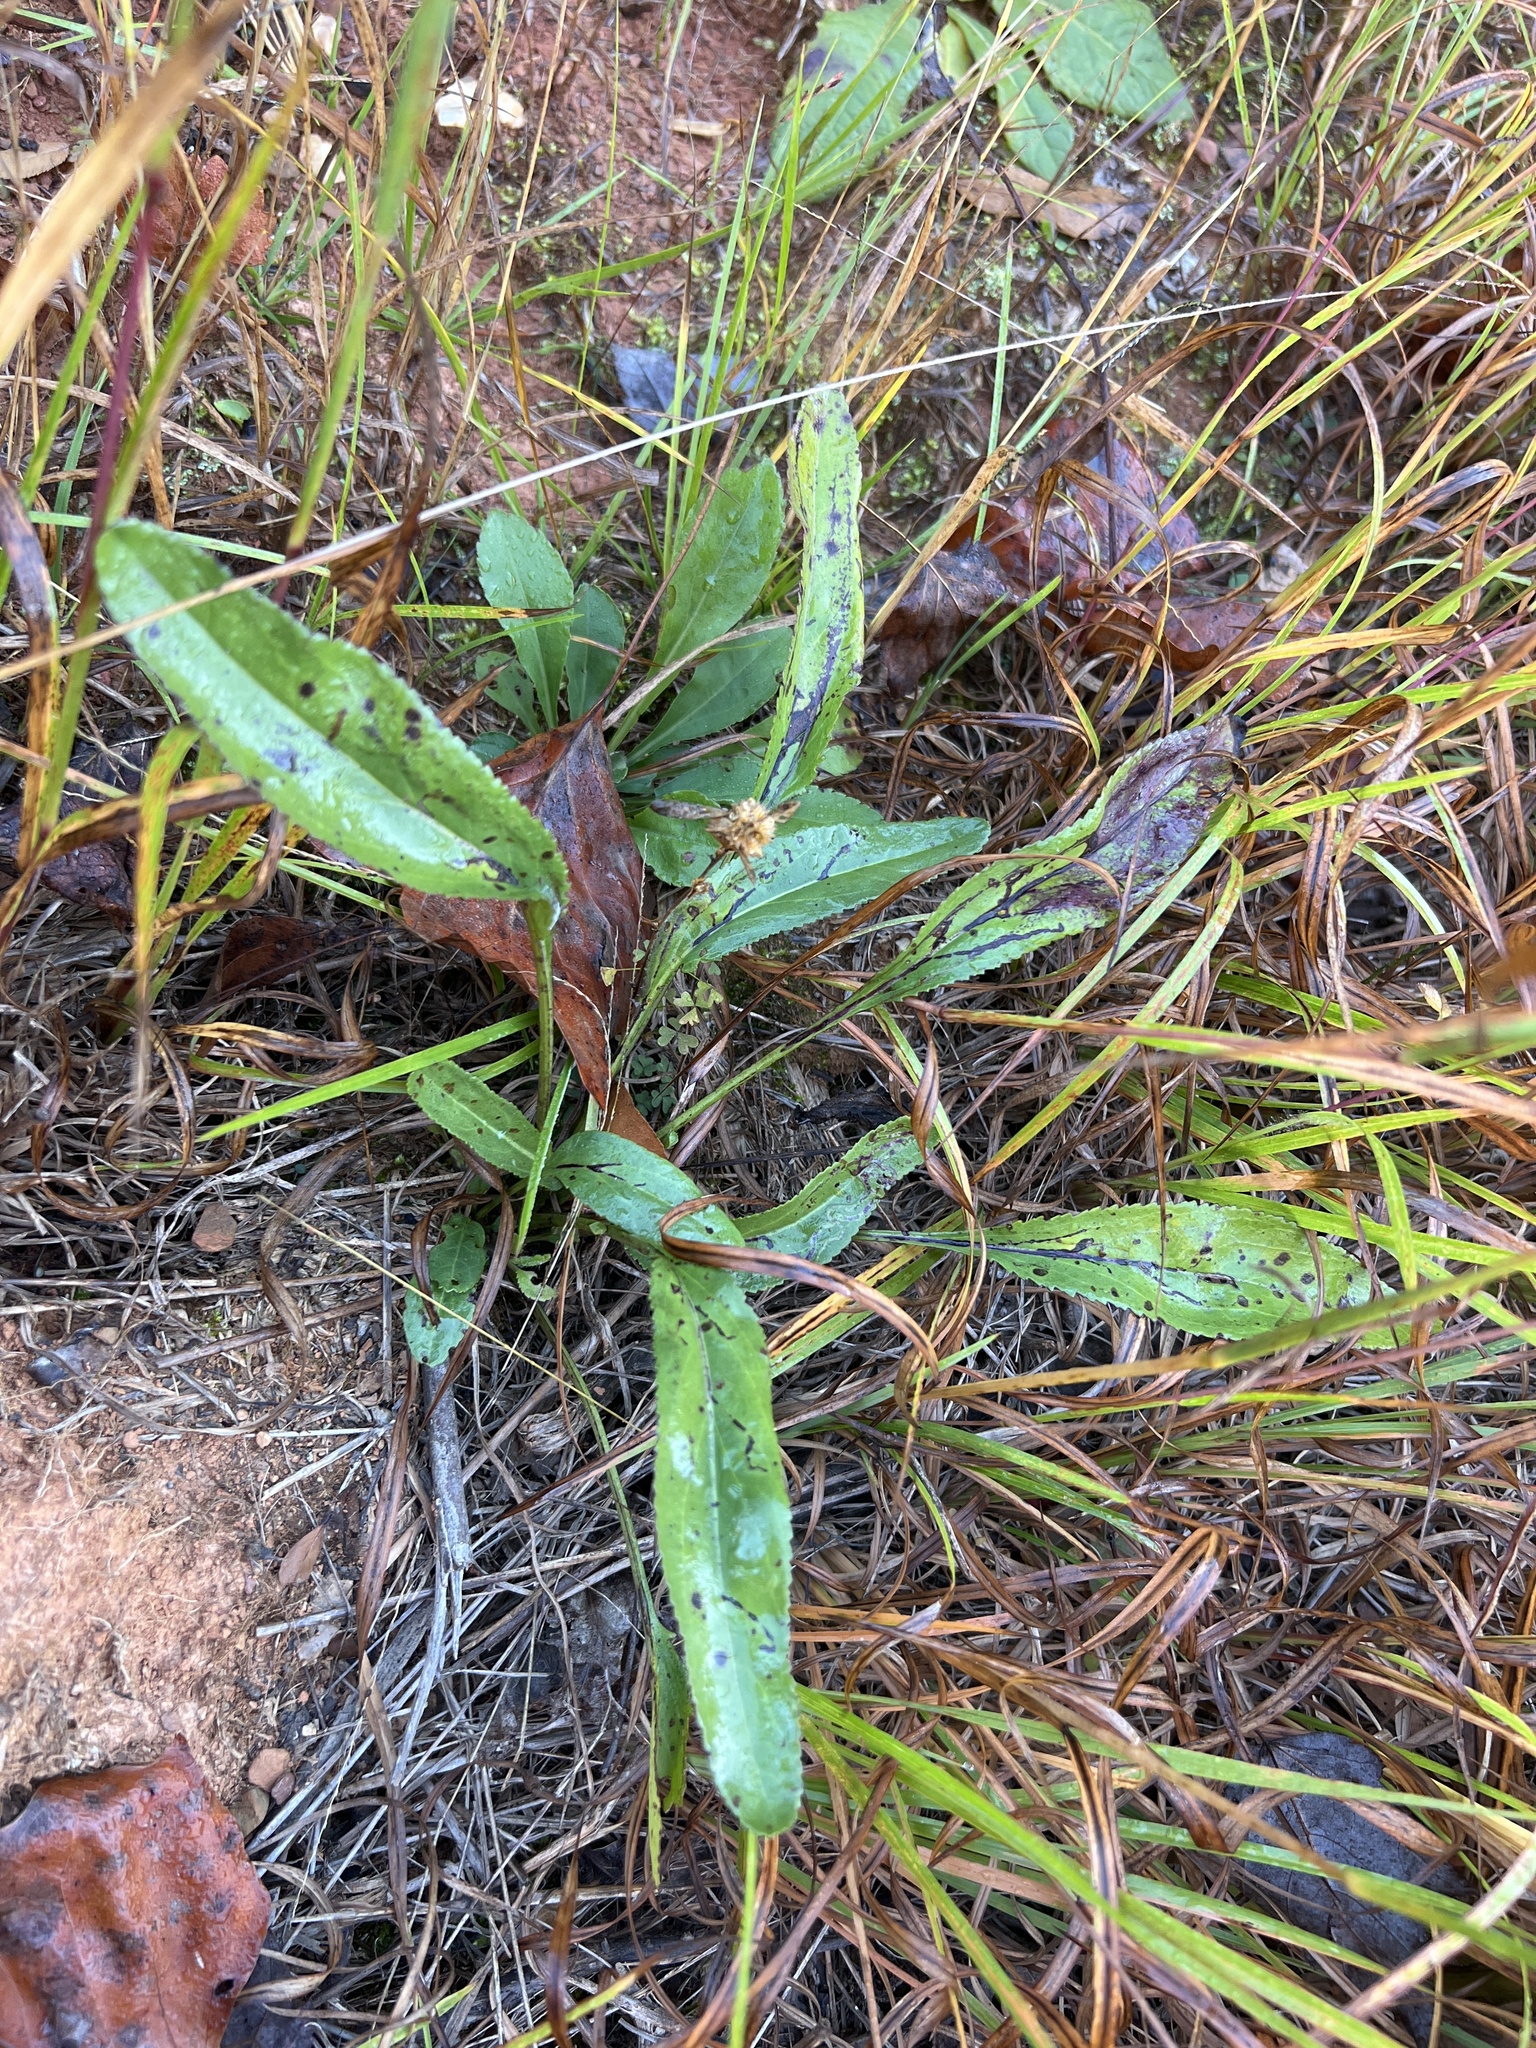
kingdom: Plantae
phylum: Tracheophyta
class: Magnoliopsida
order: Asterales
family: Asteraceae
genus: Packera
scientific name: Packera anonyma
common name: Small ragwort
